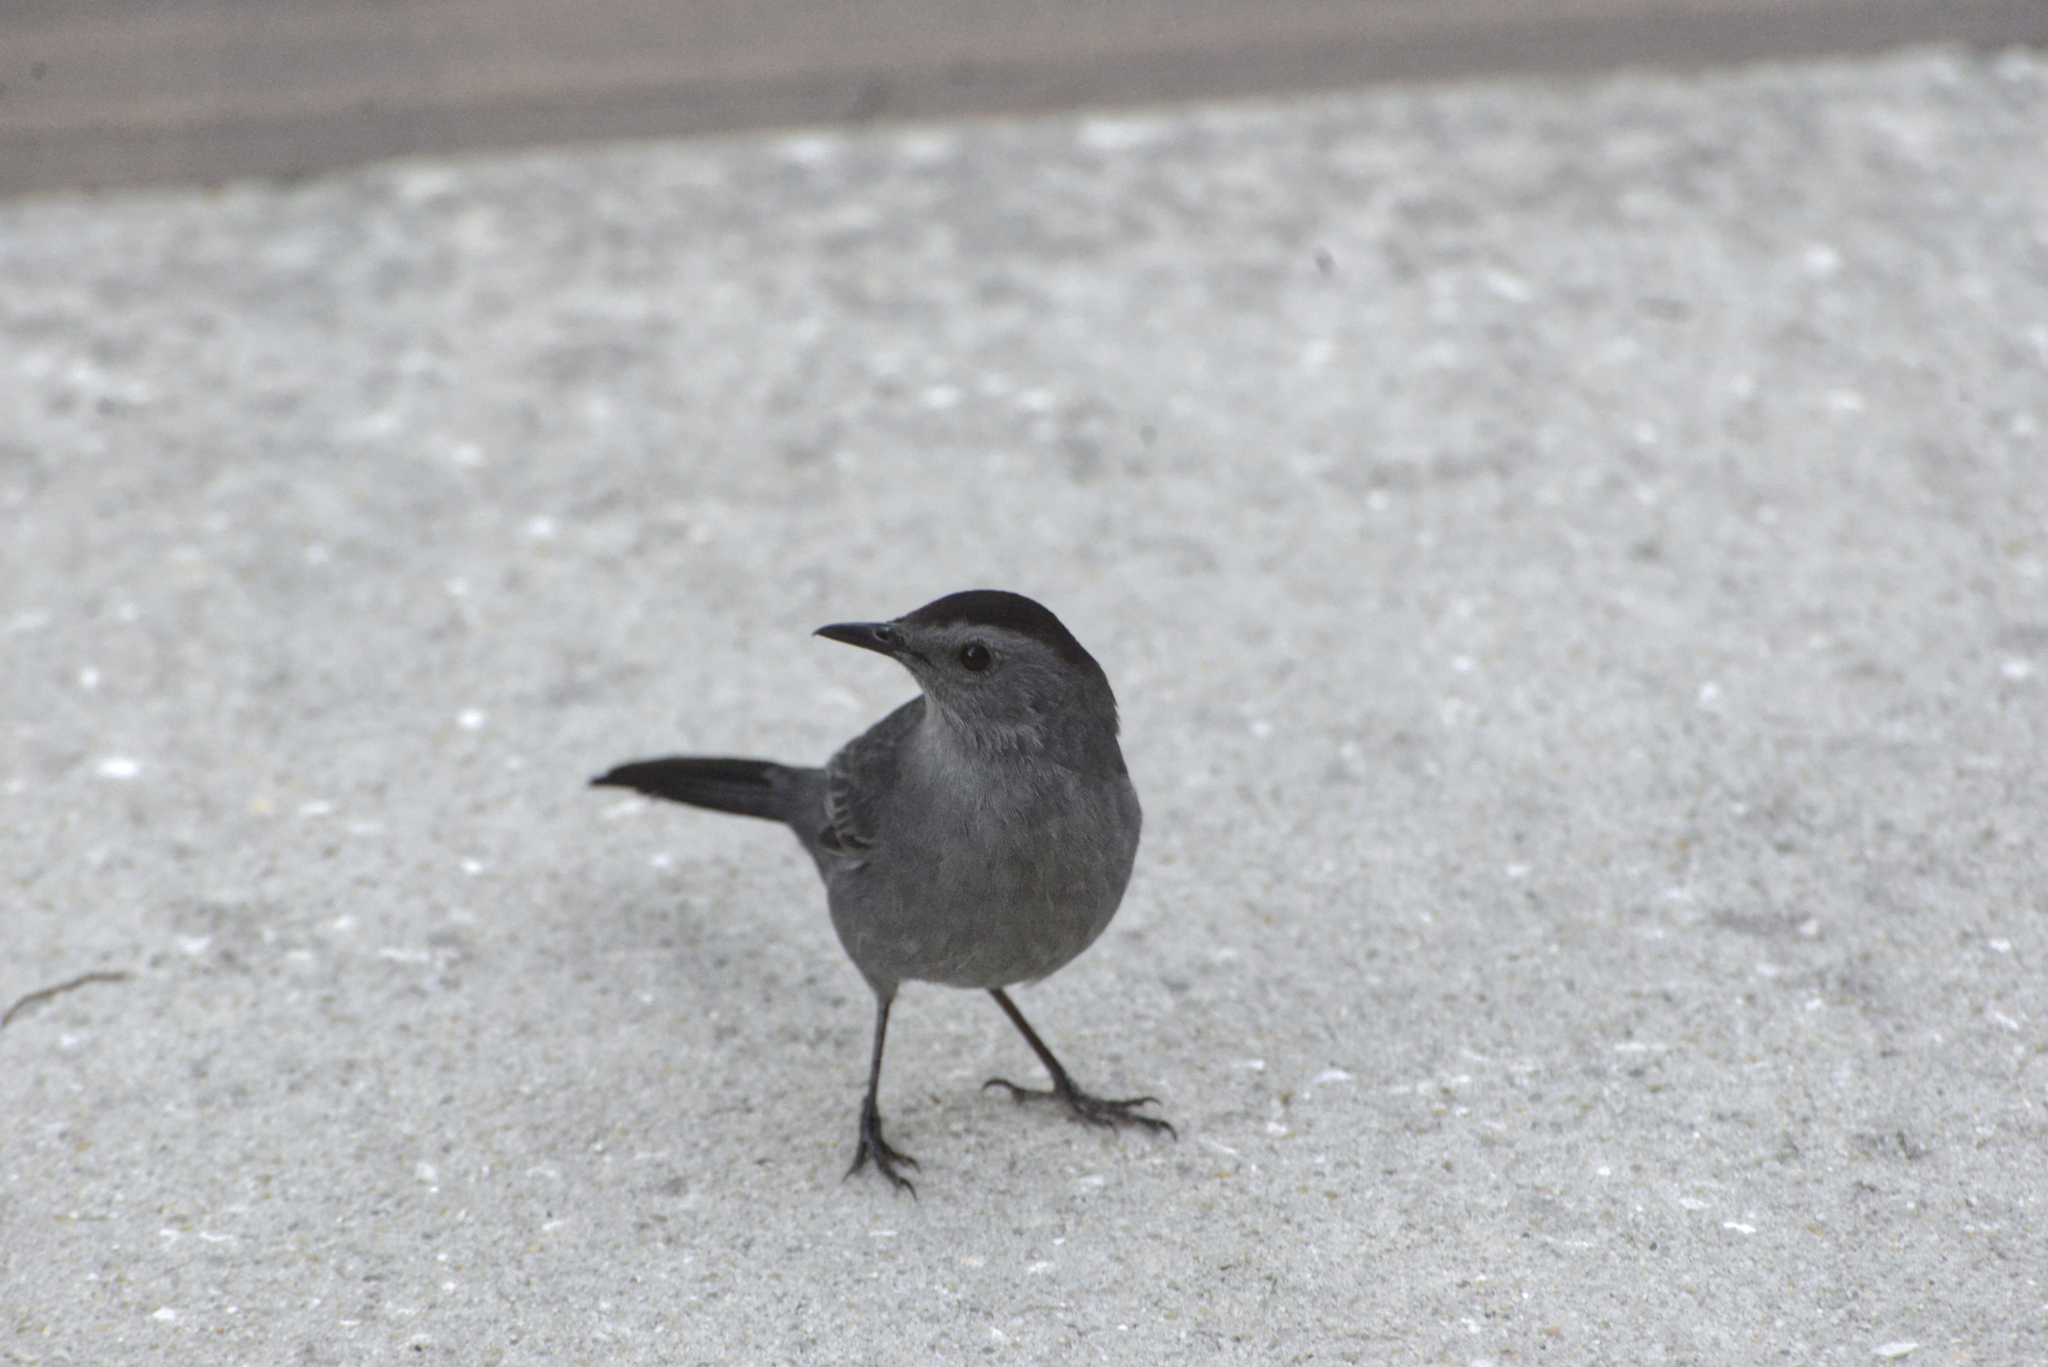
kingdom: Animalia
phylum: Chordata
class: Aves
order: Passeriformes
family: Mimidae
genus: Dumetella
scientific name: Dumetella carolinensis
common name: Gray catbird
